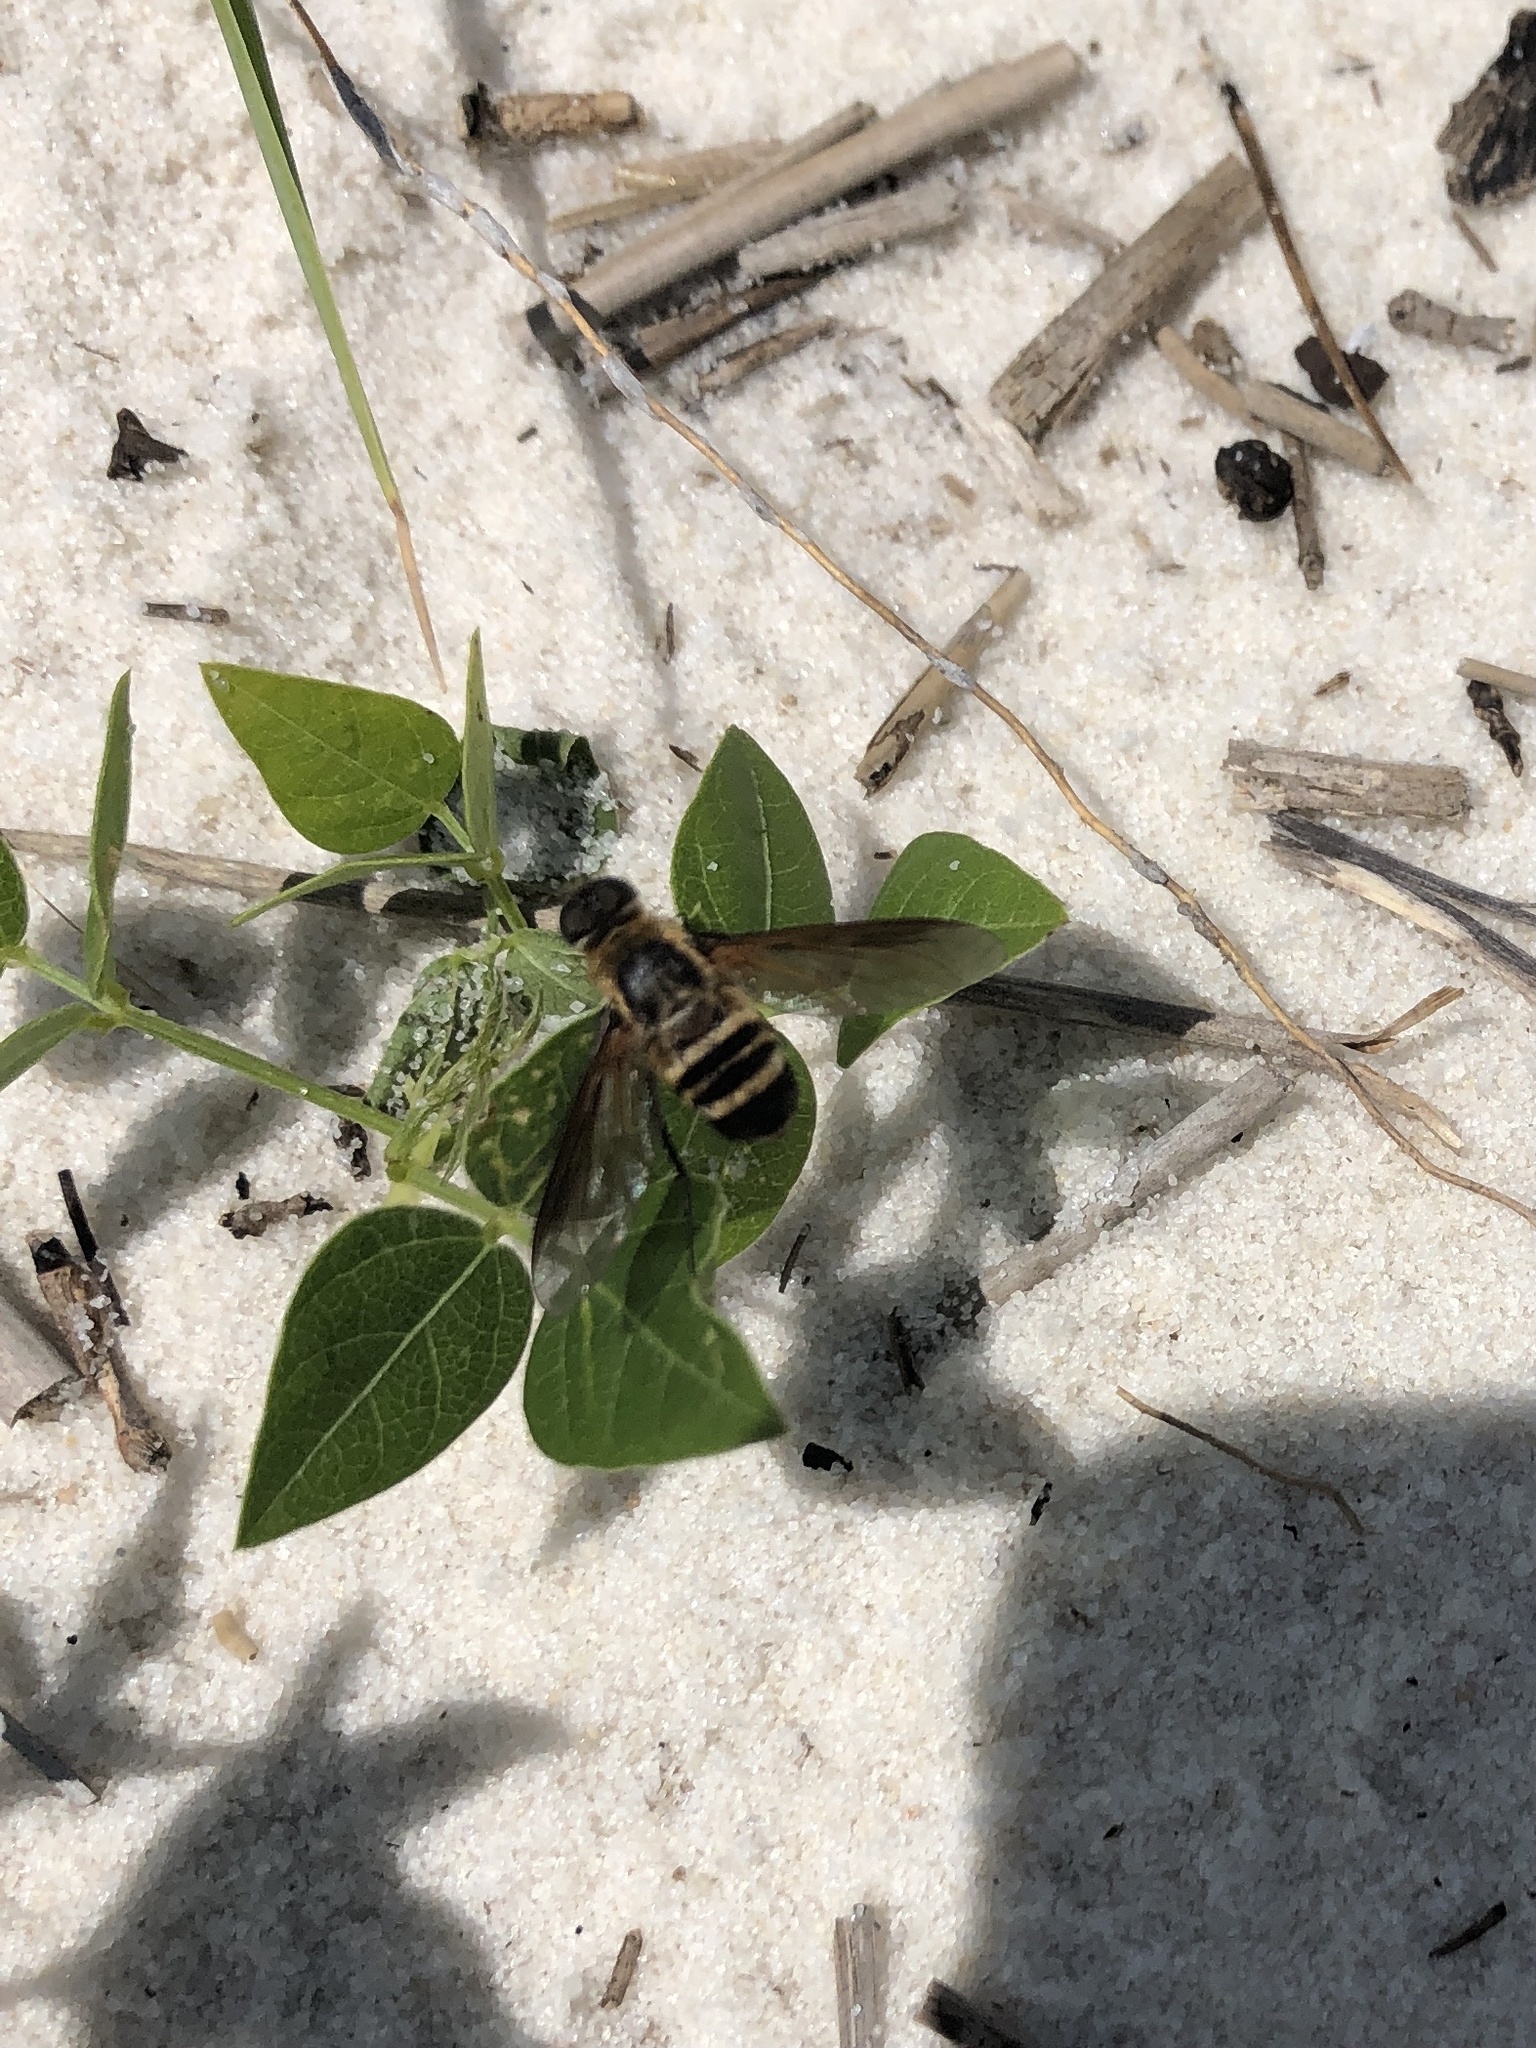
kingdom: Animalia
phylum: Arthropoda
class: Insecta
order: Diptera
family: Bombyliidae
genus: Exoprosopa
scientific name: Exoprosopa fasciata
